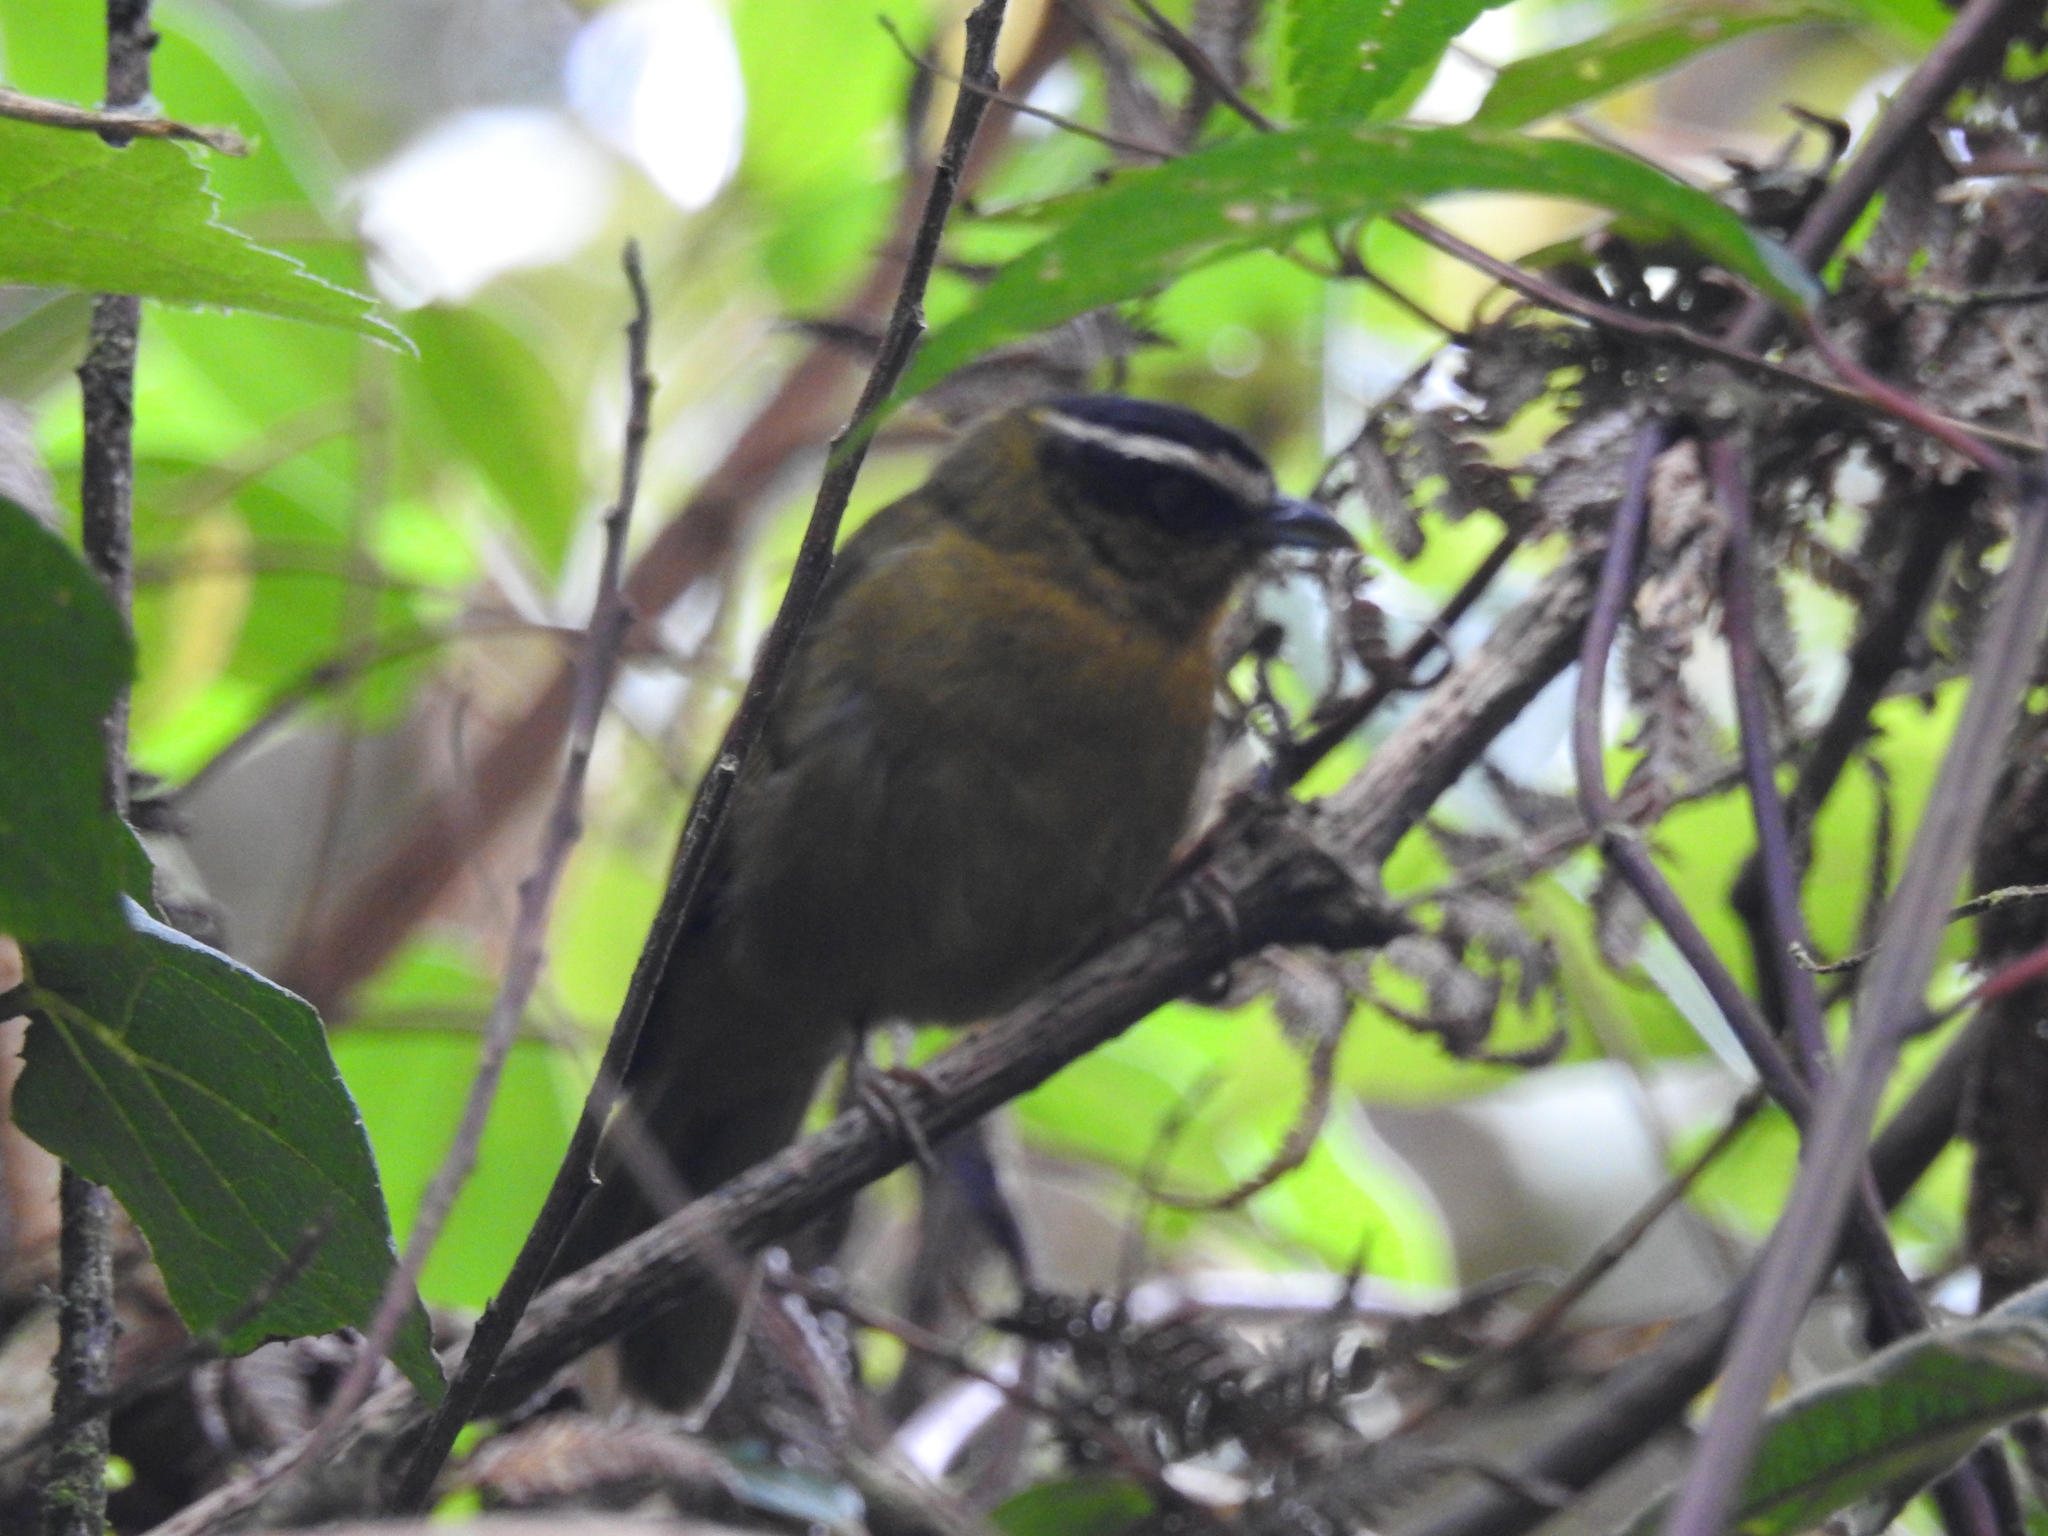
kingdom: Animalia
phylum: Chordata
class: Aves
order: Passeriformes
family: Thraupidae
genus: Kleinothraupis
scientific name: Kleinothraupis atropileus
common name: Black-capped hemispingus
